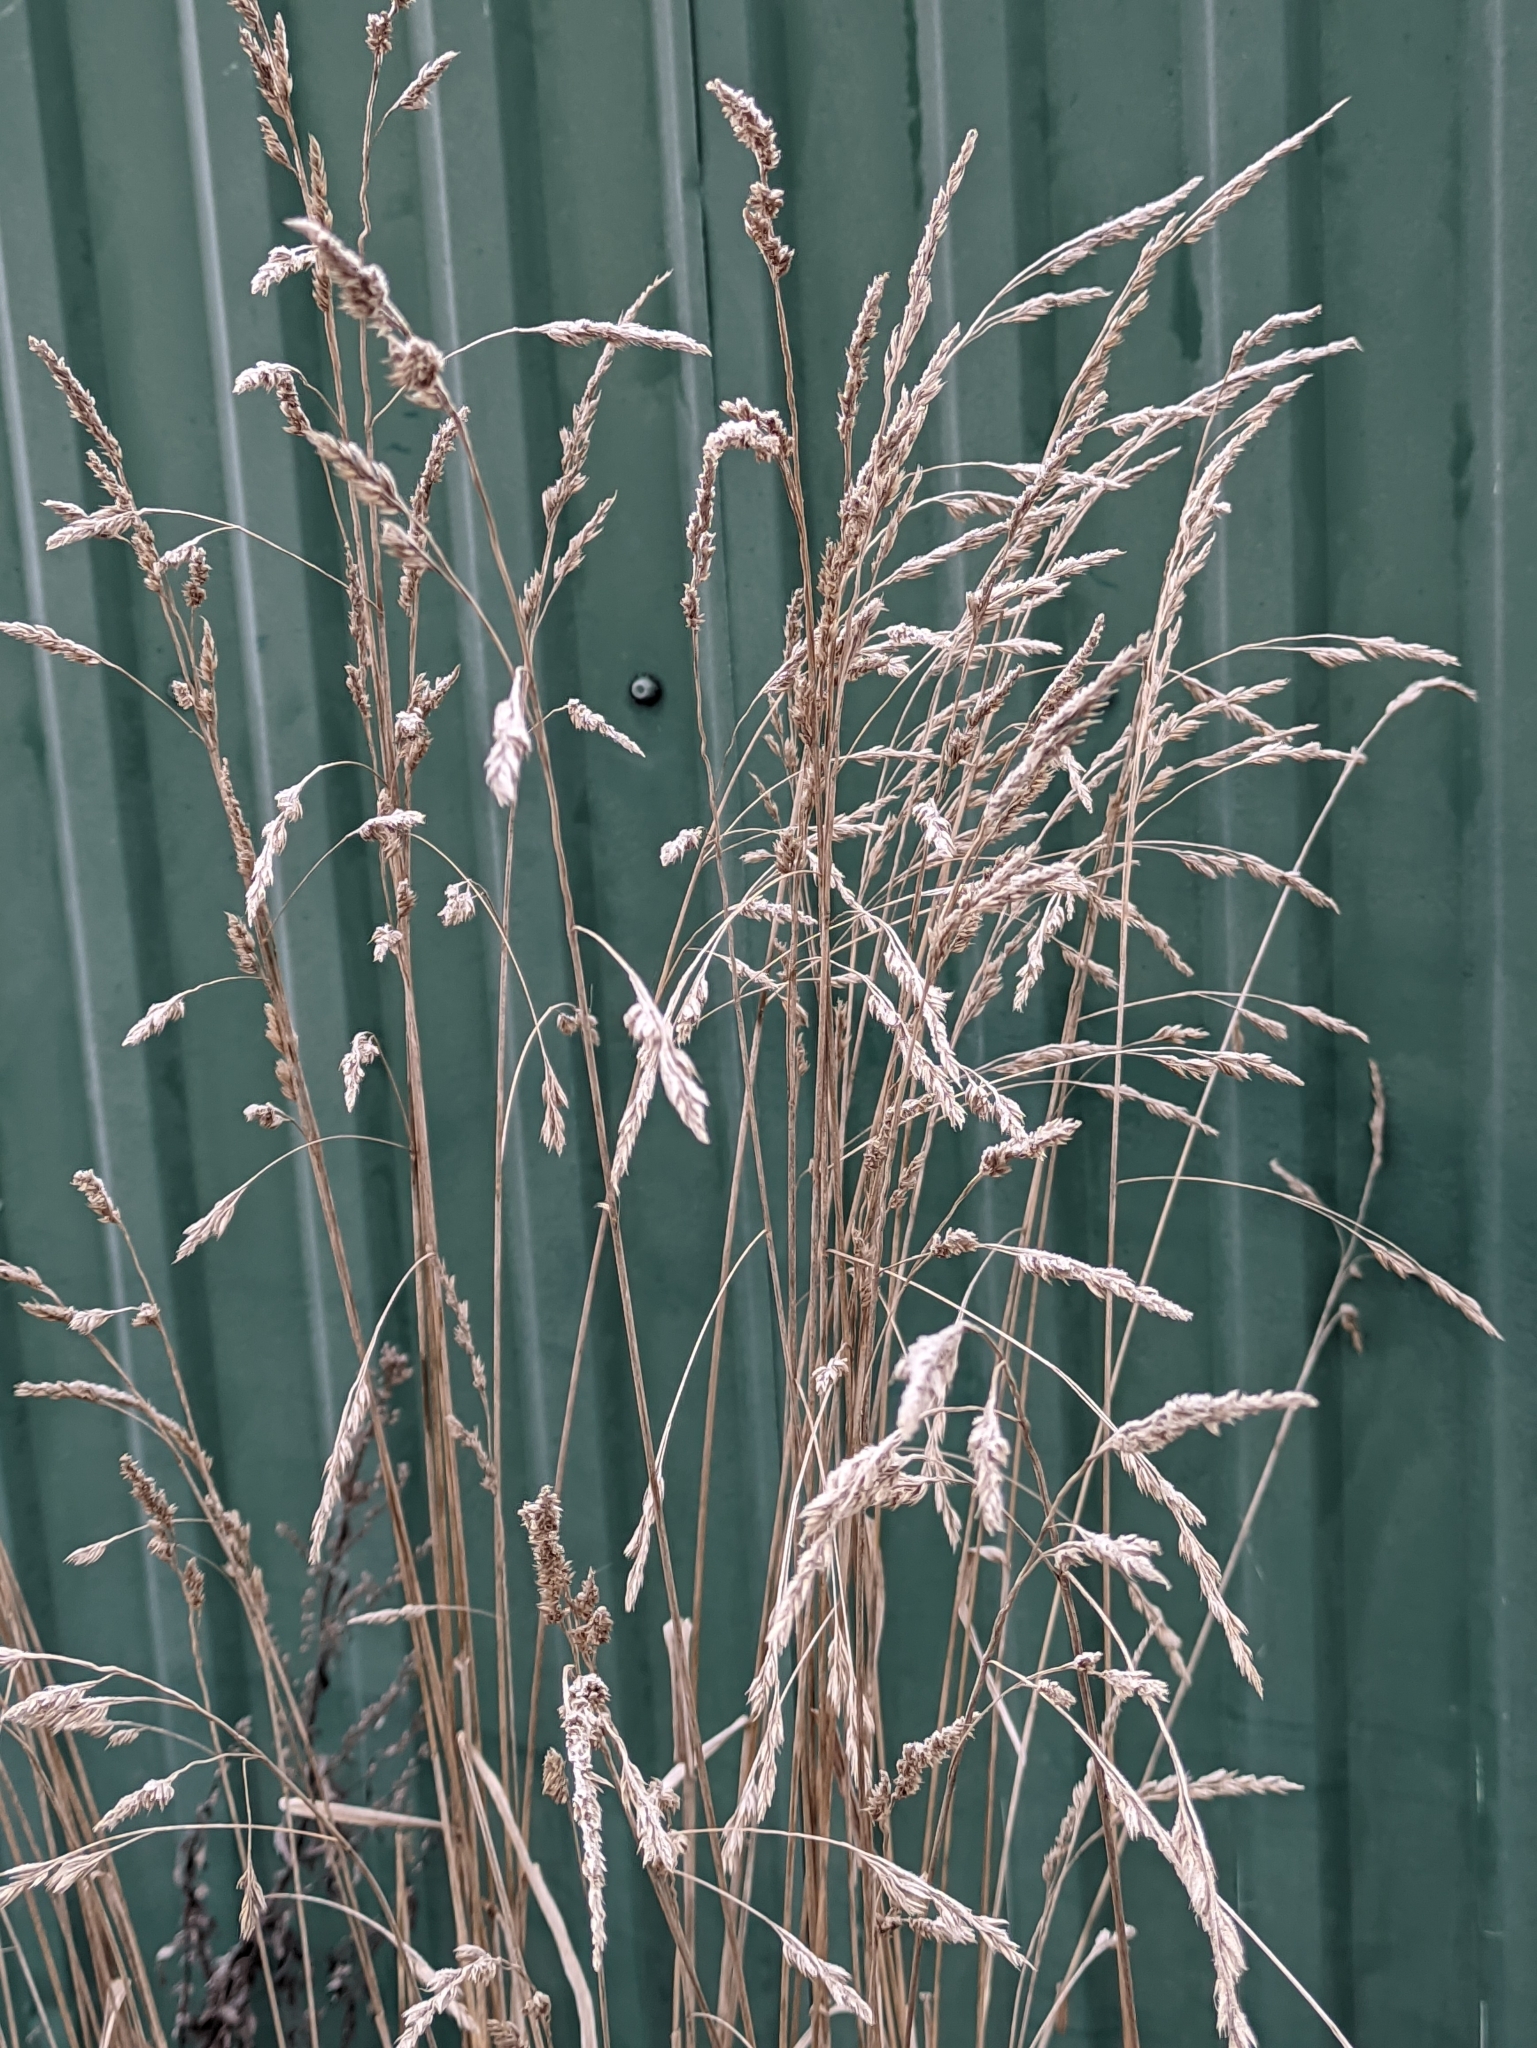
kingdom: Plantae
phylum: Tracheophyta
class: Liliopsida
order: Poales
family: Poaceae
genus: Dactylis
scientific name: Dactylis glomerata
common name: Orchardgrass
